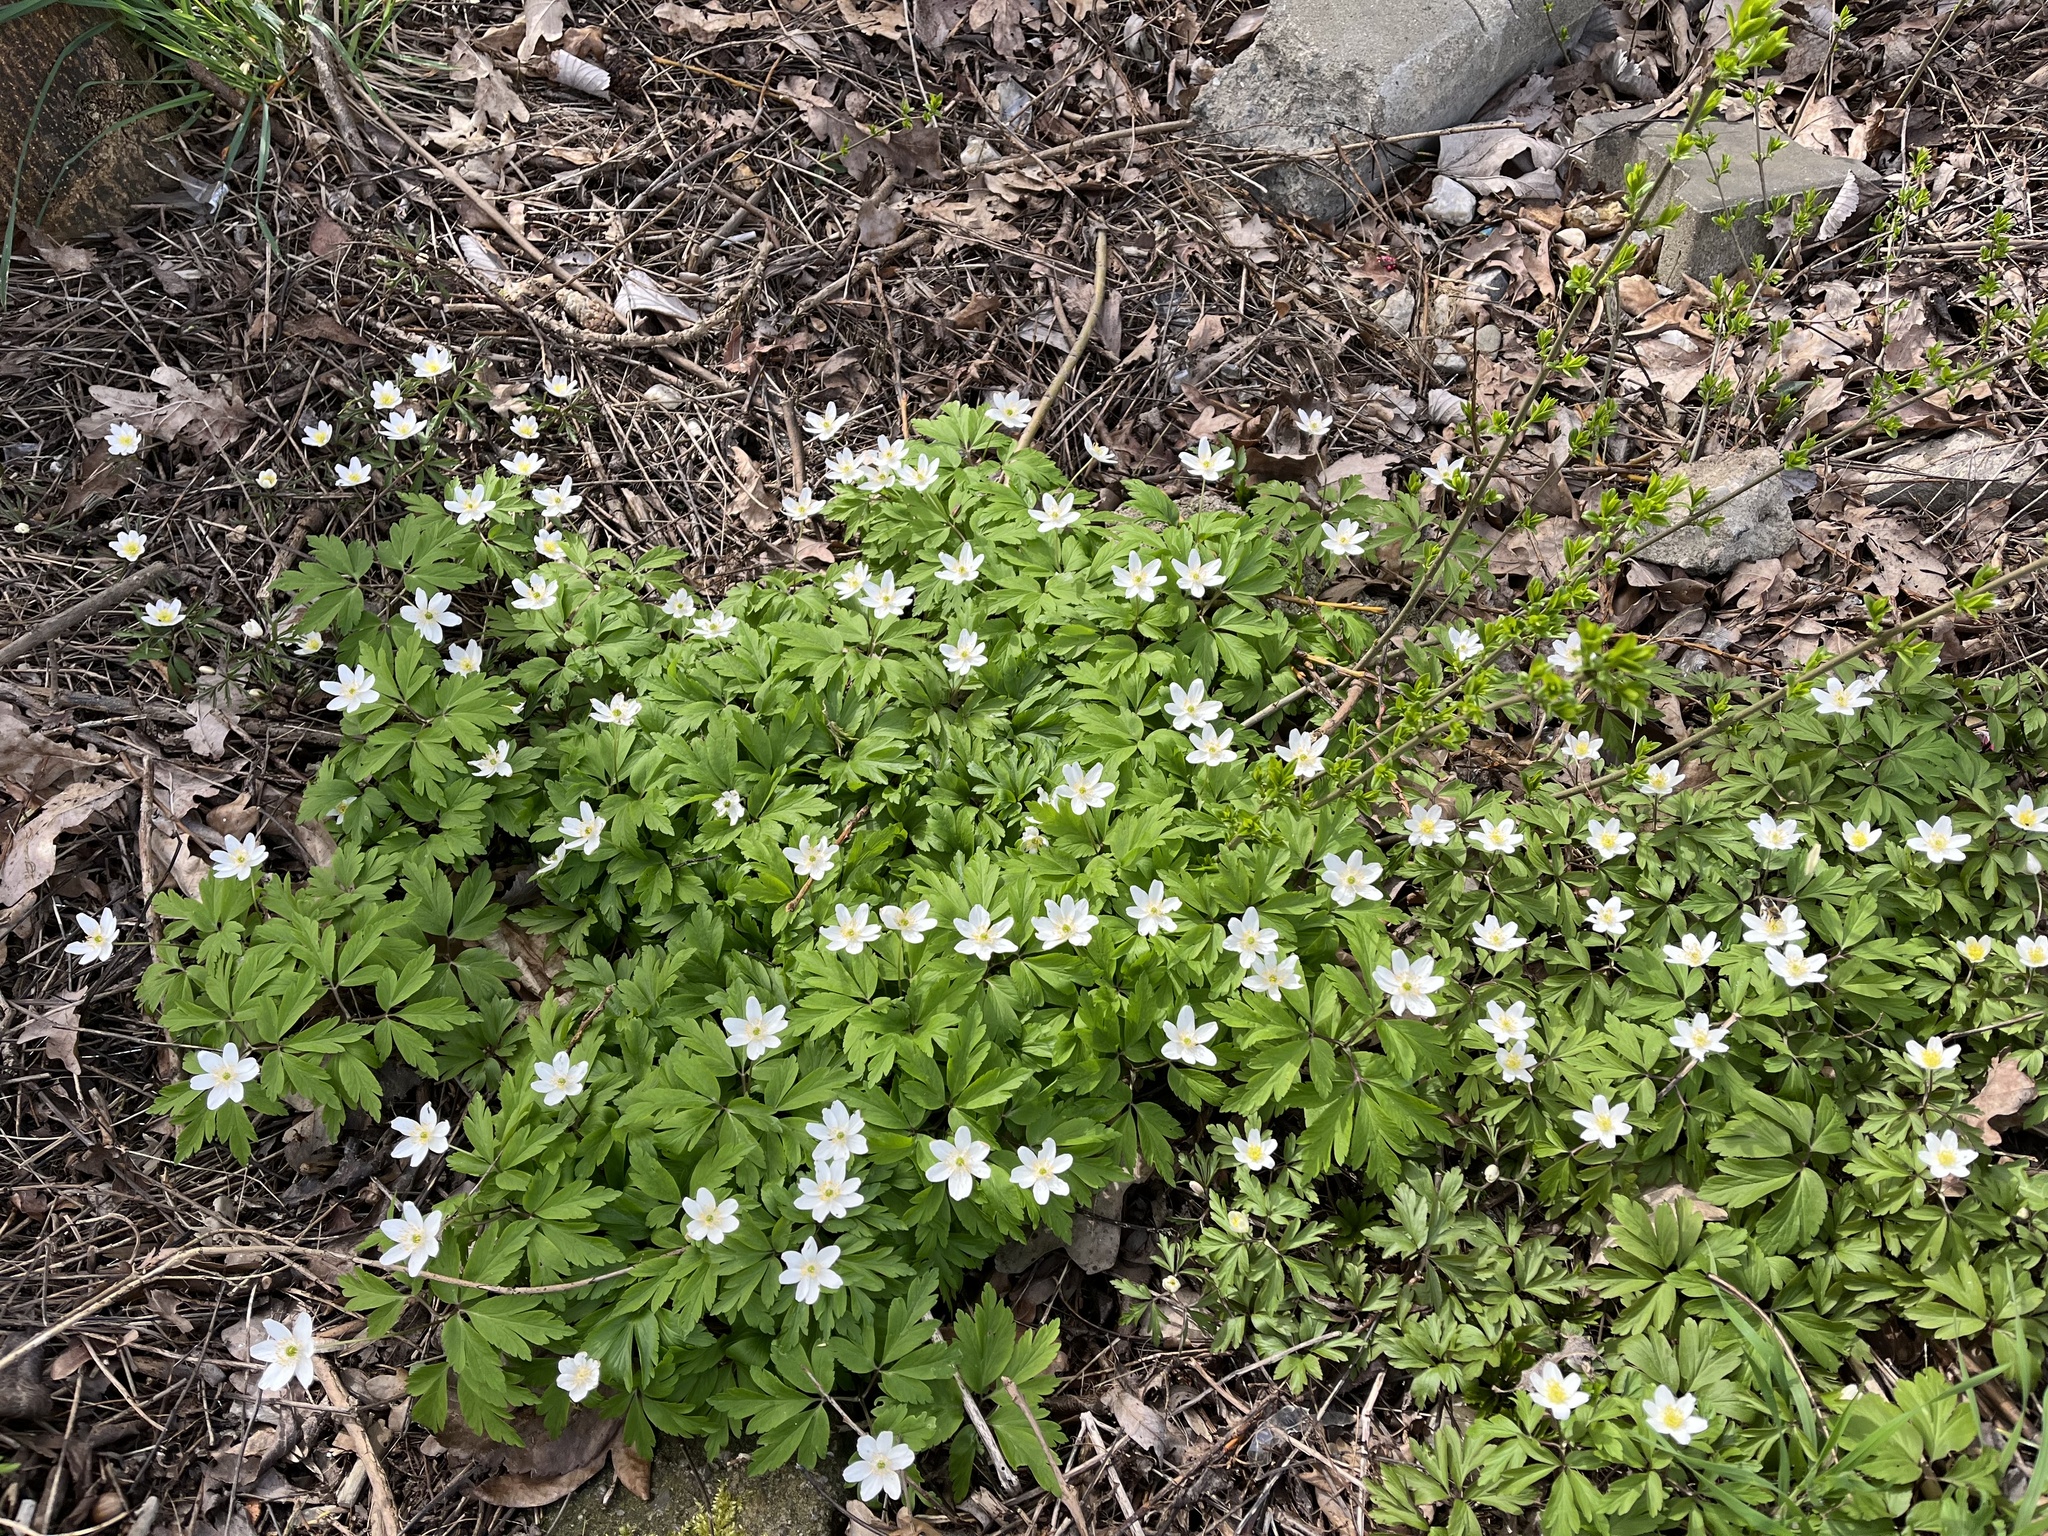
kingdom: Plantae
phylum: Tracheophyta
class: Magnoliopsida
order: Ranunculales
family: Ranunculaceae
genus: Anemone
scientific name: Anemone nemorosa
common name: Wood anemone
